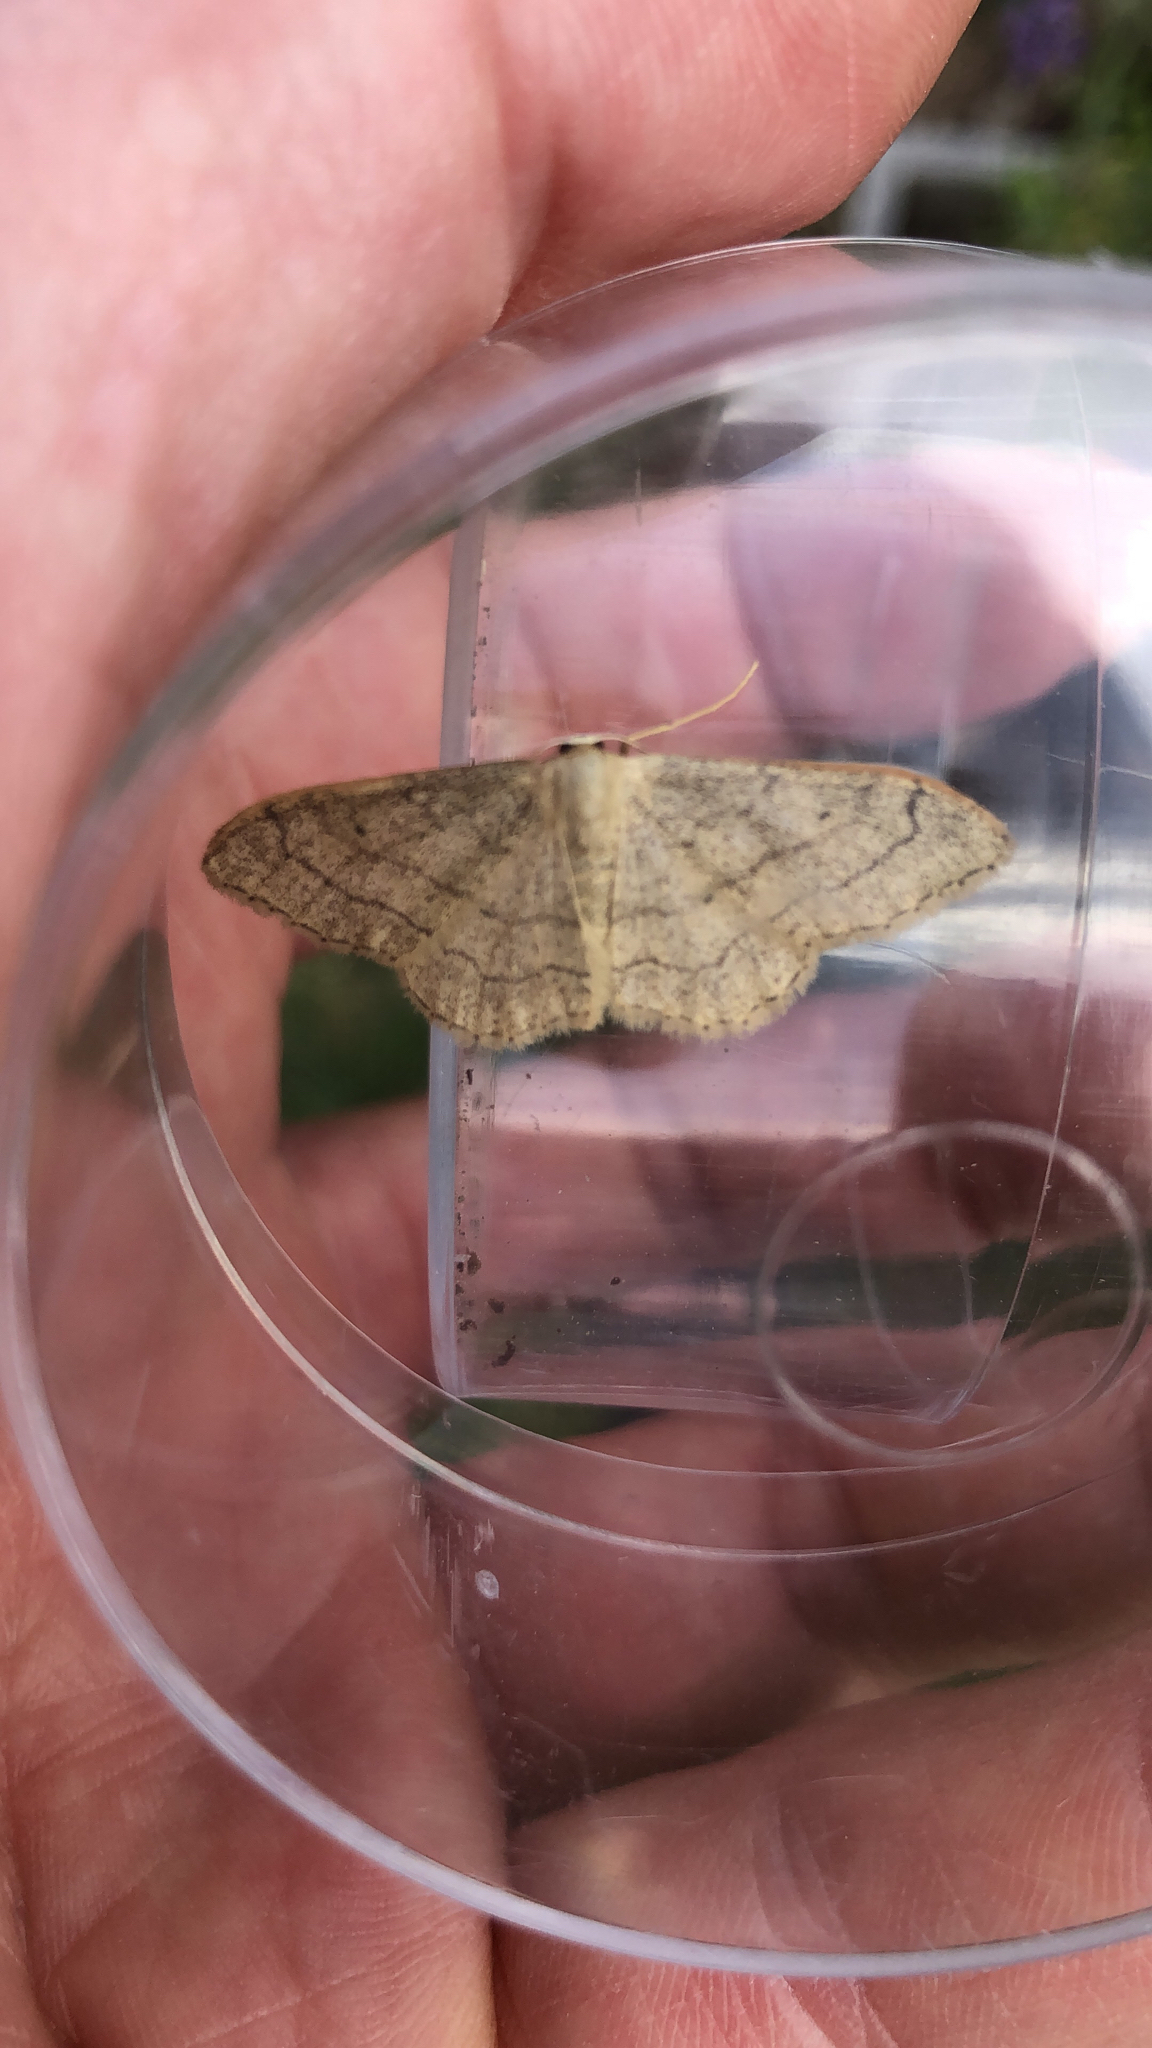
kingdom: Animalia
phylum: Arthropoda
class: Insecta
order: Lepidoptera
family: Geometridae
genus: Idaea
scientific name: Idaea aversata
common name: Riband wave
